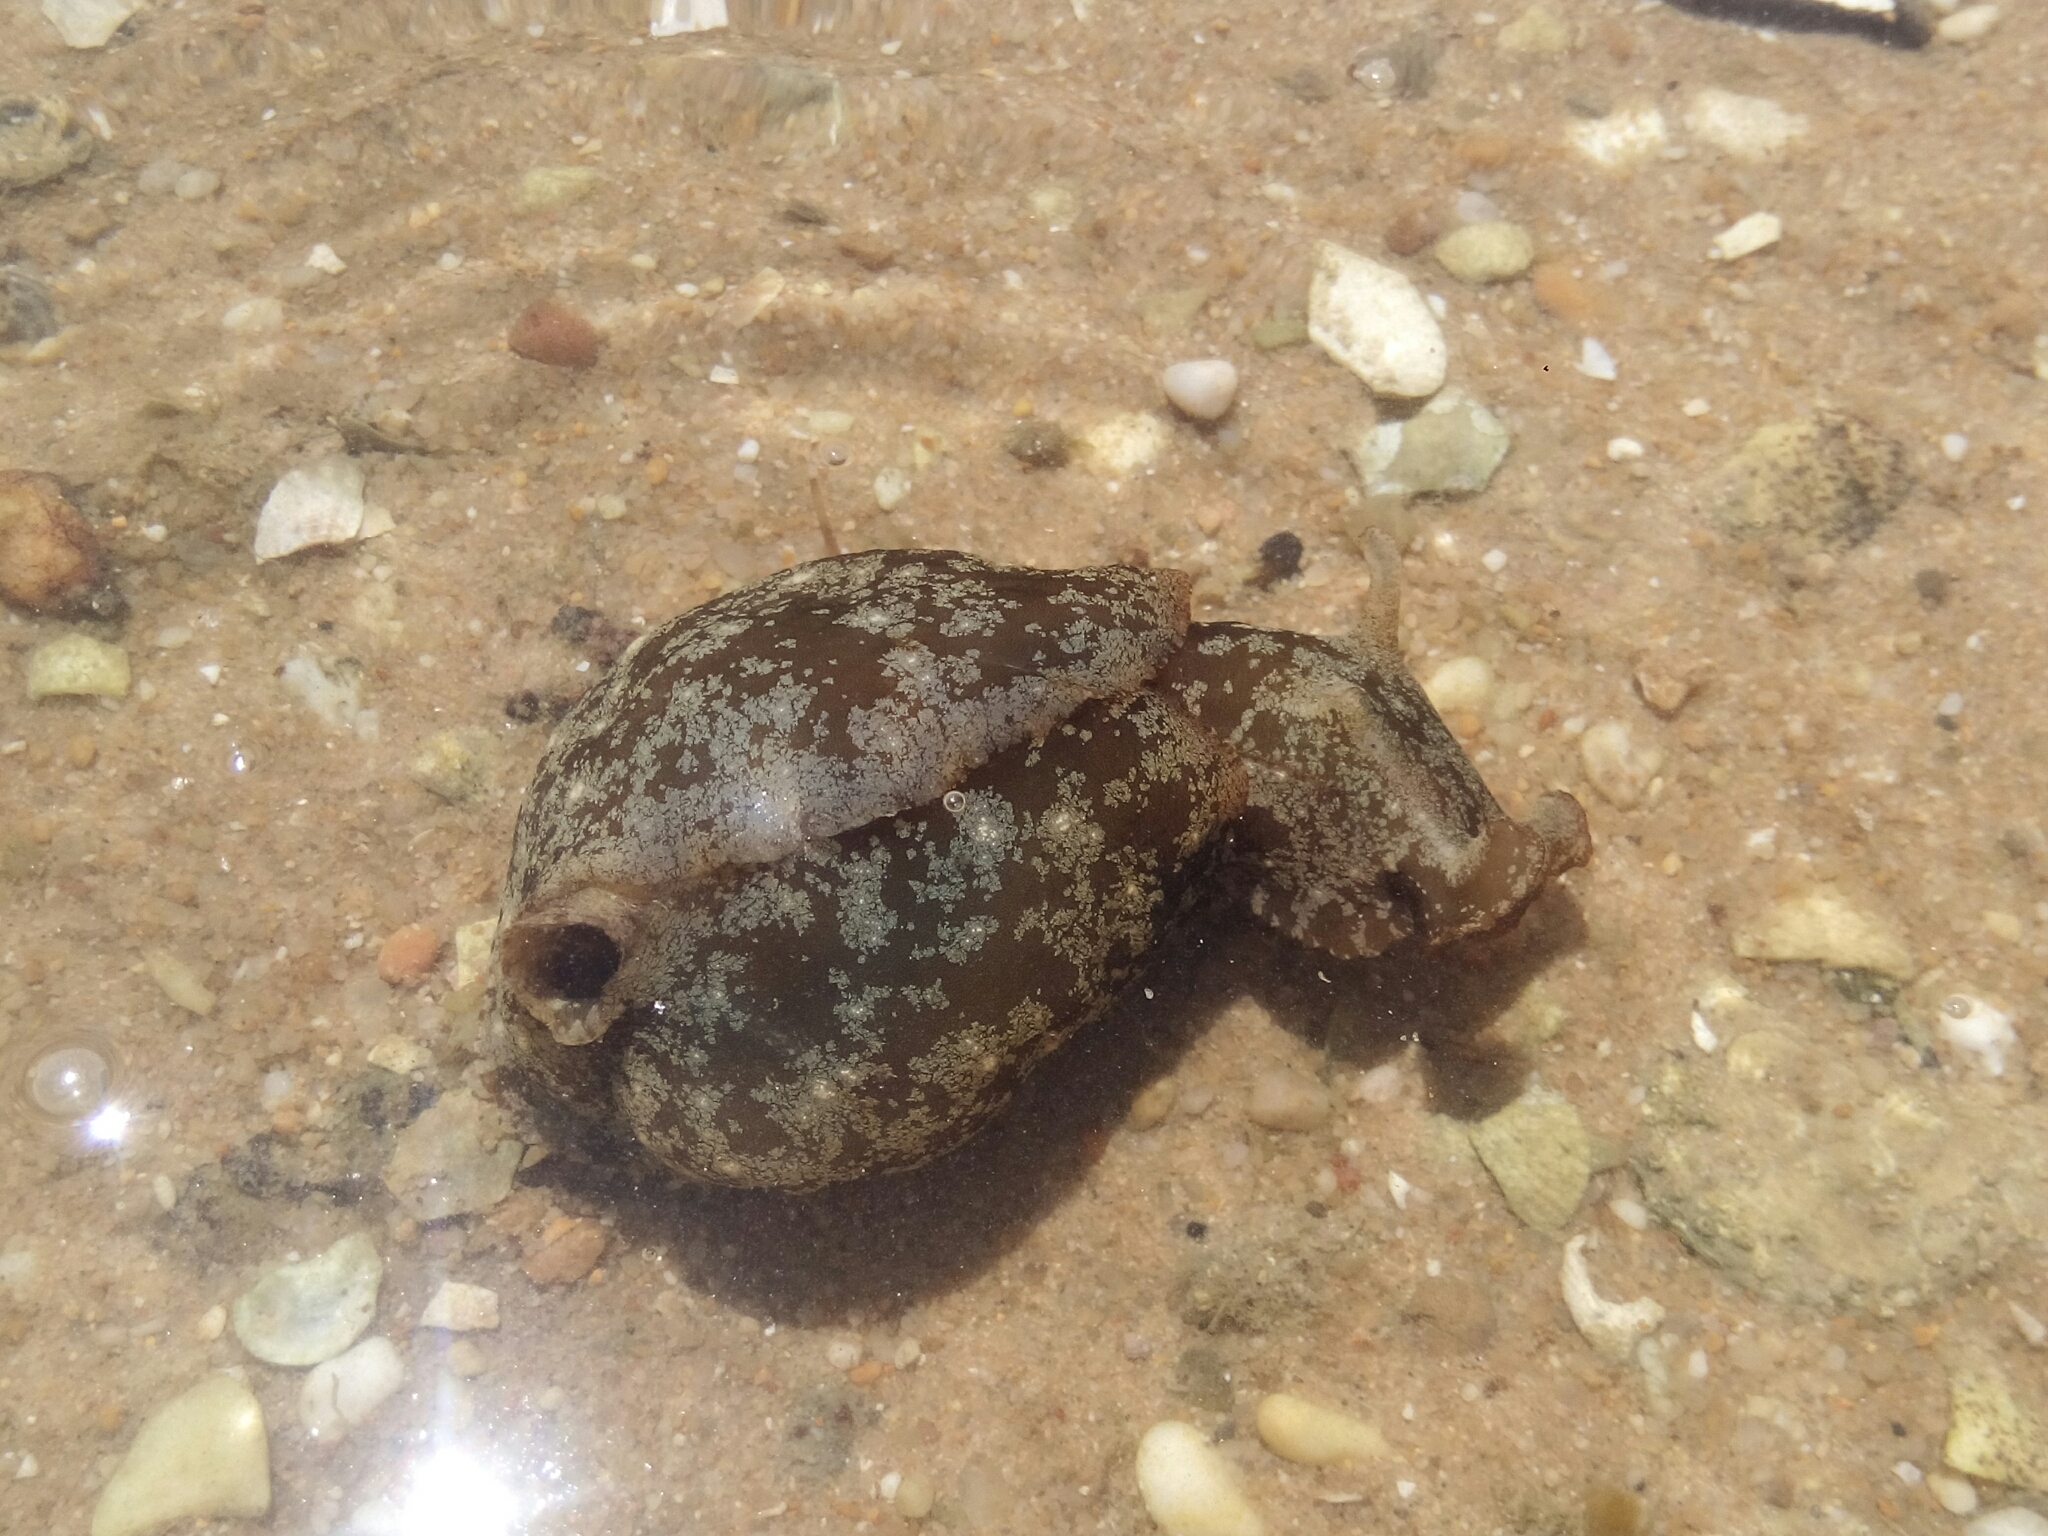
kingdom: Animalia
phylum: Mollusca
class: Gastropoda
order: Aplysiida
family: Aplysiidae
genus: Aplysia
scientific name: Aplysia depilans
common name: Spotted sea hare
